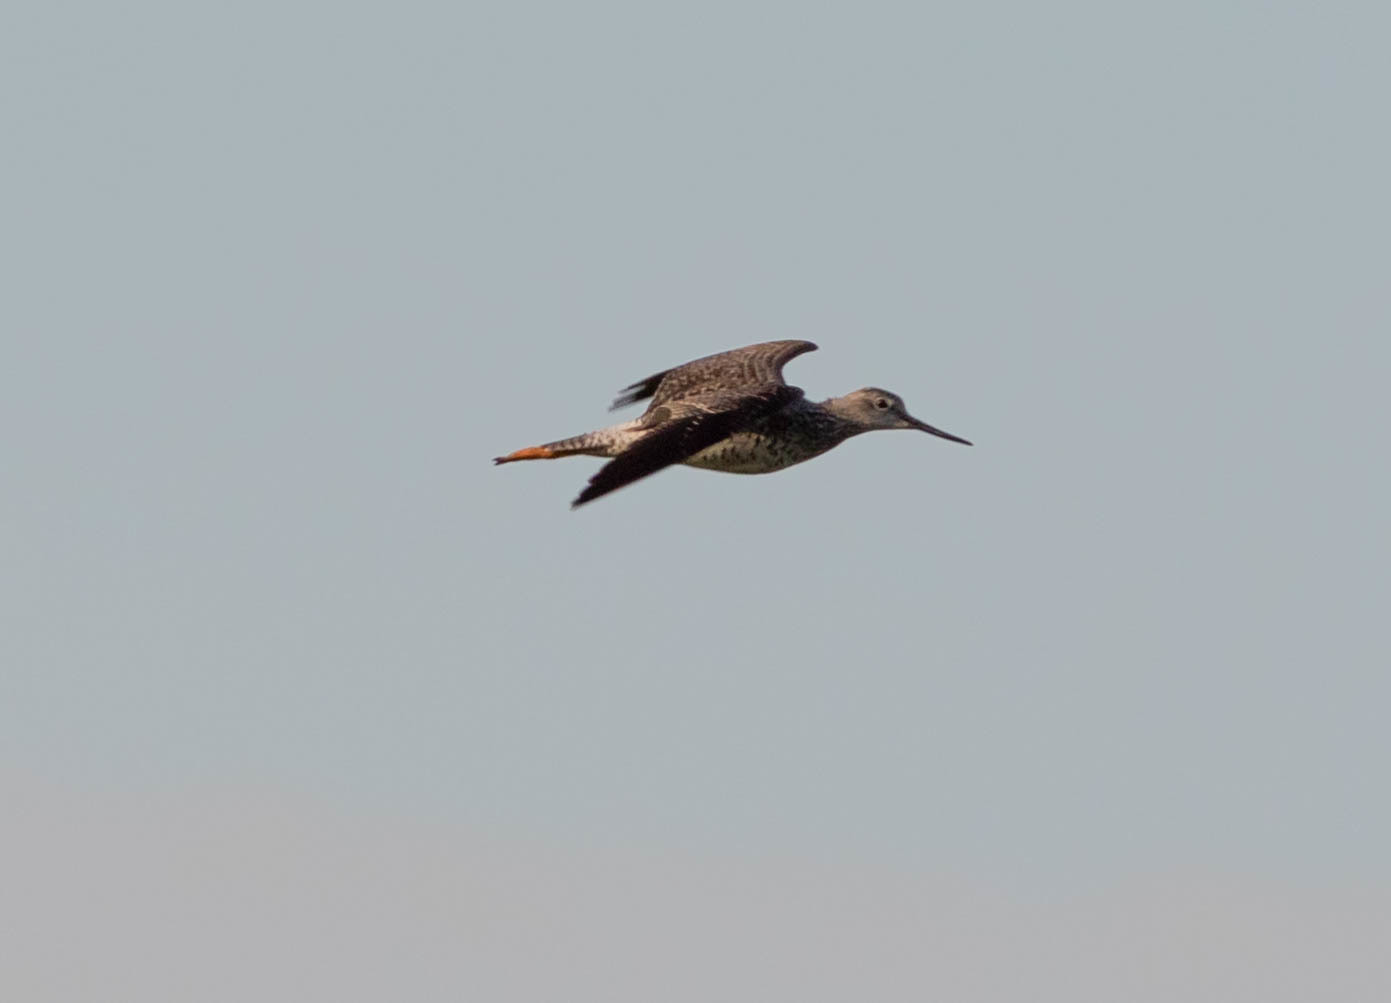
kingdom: Animalia
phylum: Chordata
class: Aves
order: Charadriiformes
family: Scolopacidae
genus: Tringa
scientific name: Tringa flavipes
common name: Lesser yellowlegs
